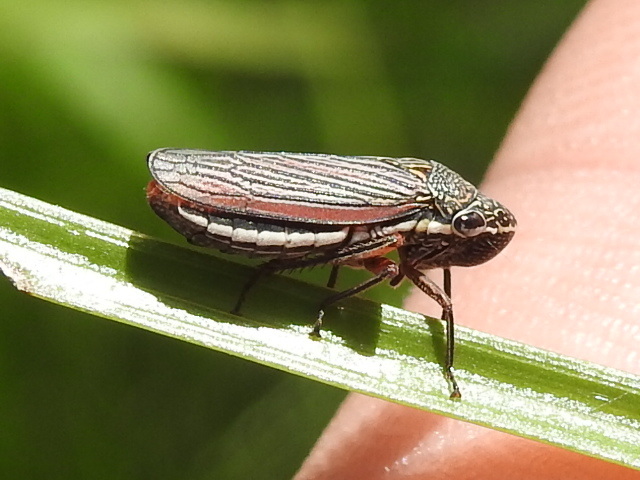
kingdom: Animalia
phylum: Arthropoda
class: Insecta
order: Hemiptera
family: Cicadellidae
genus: Cuerna
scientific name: Cuerna costalis
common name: Lateral-lined sharpshooter
